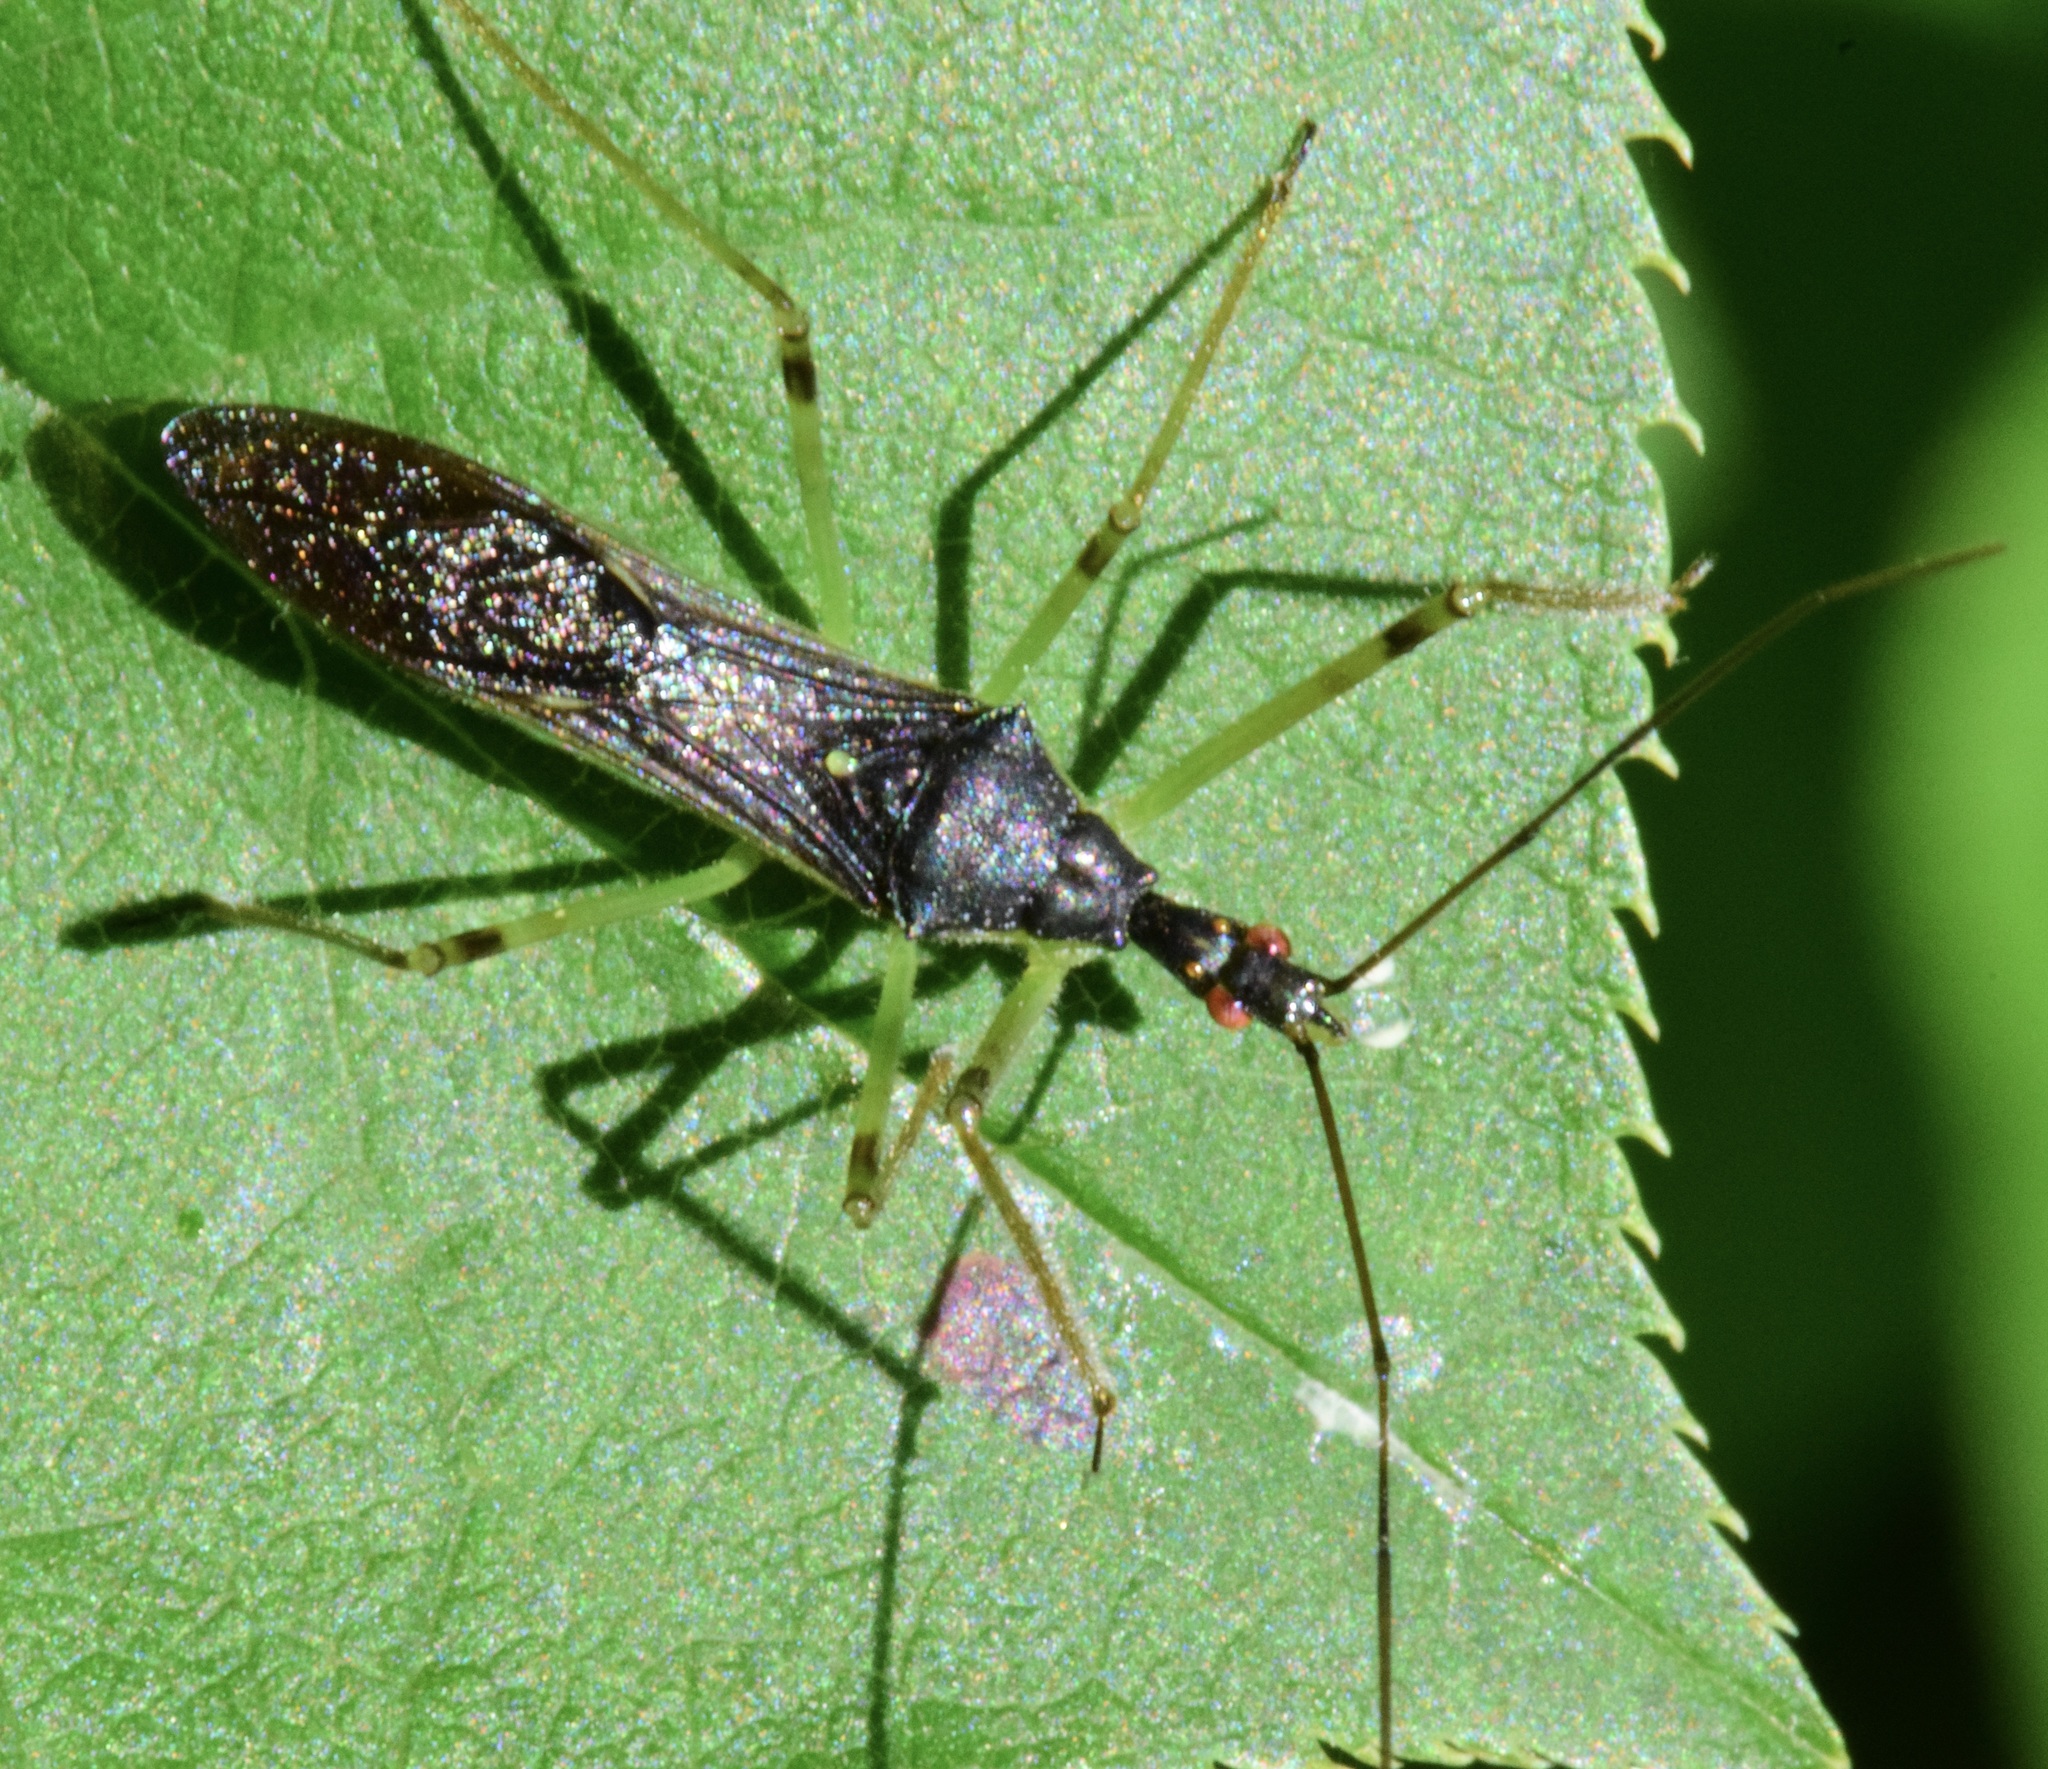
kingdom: Animalia
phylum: Arthropoda
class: Insecta
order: Hemiptera
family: Reduviidae
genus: Zelus
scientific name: Zelus luridus
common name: Pale green assassin bug
